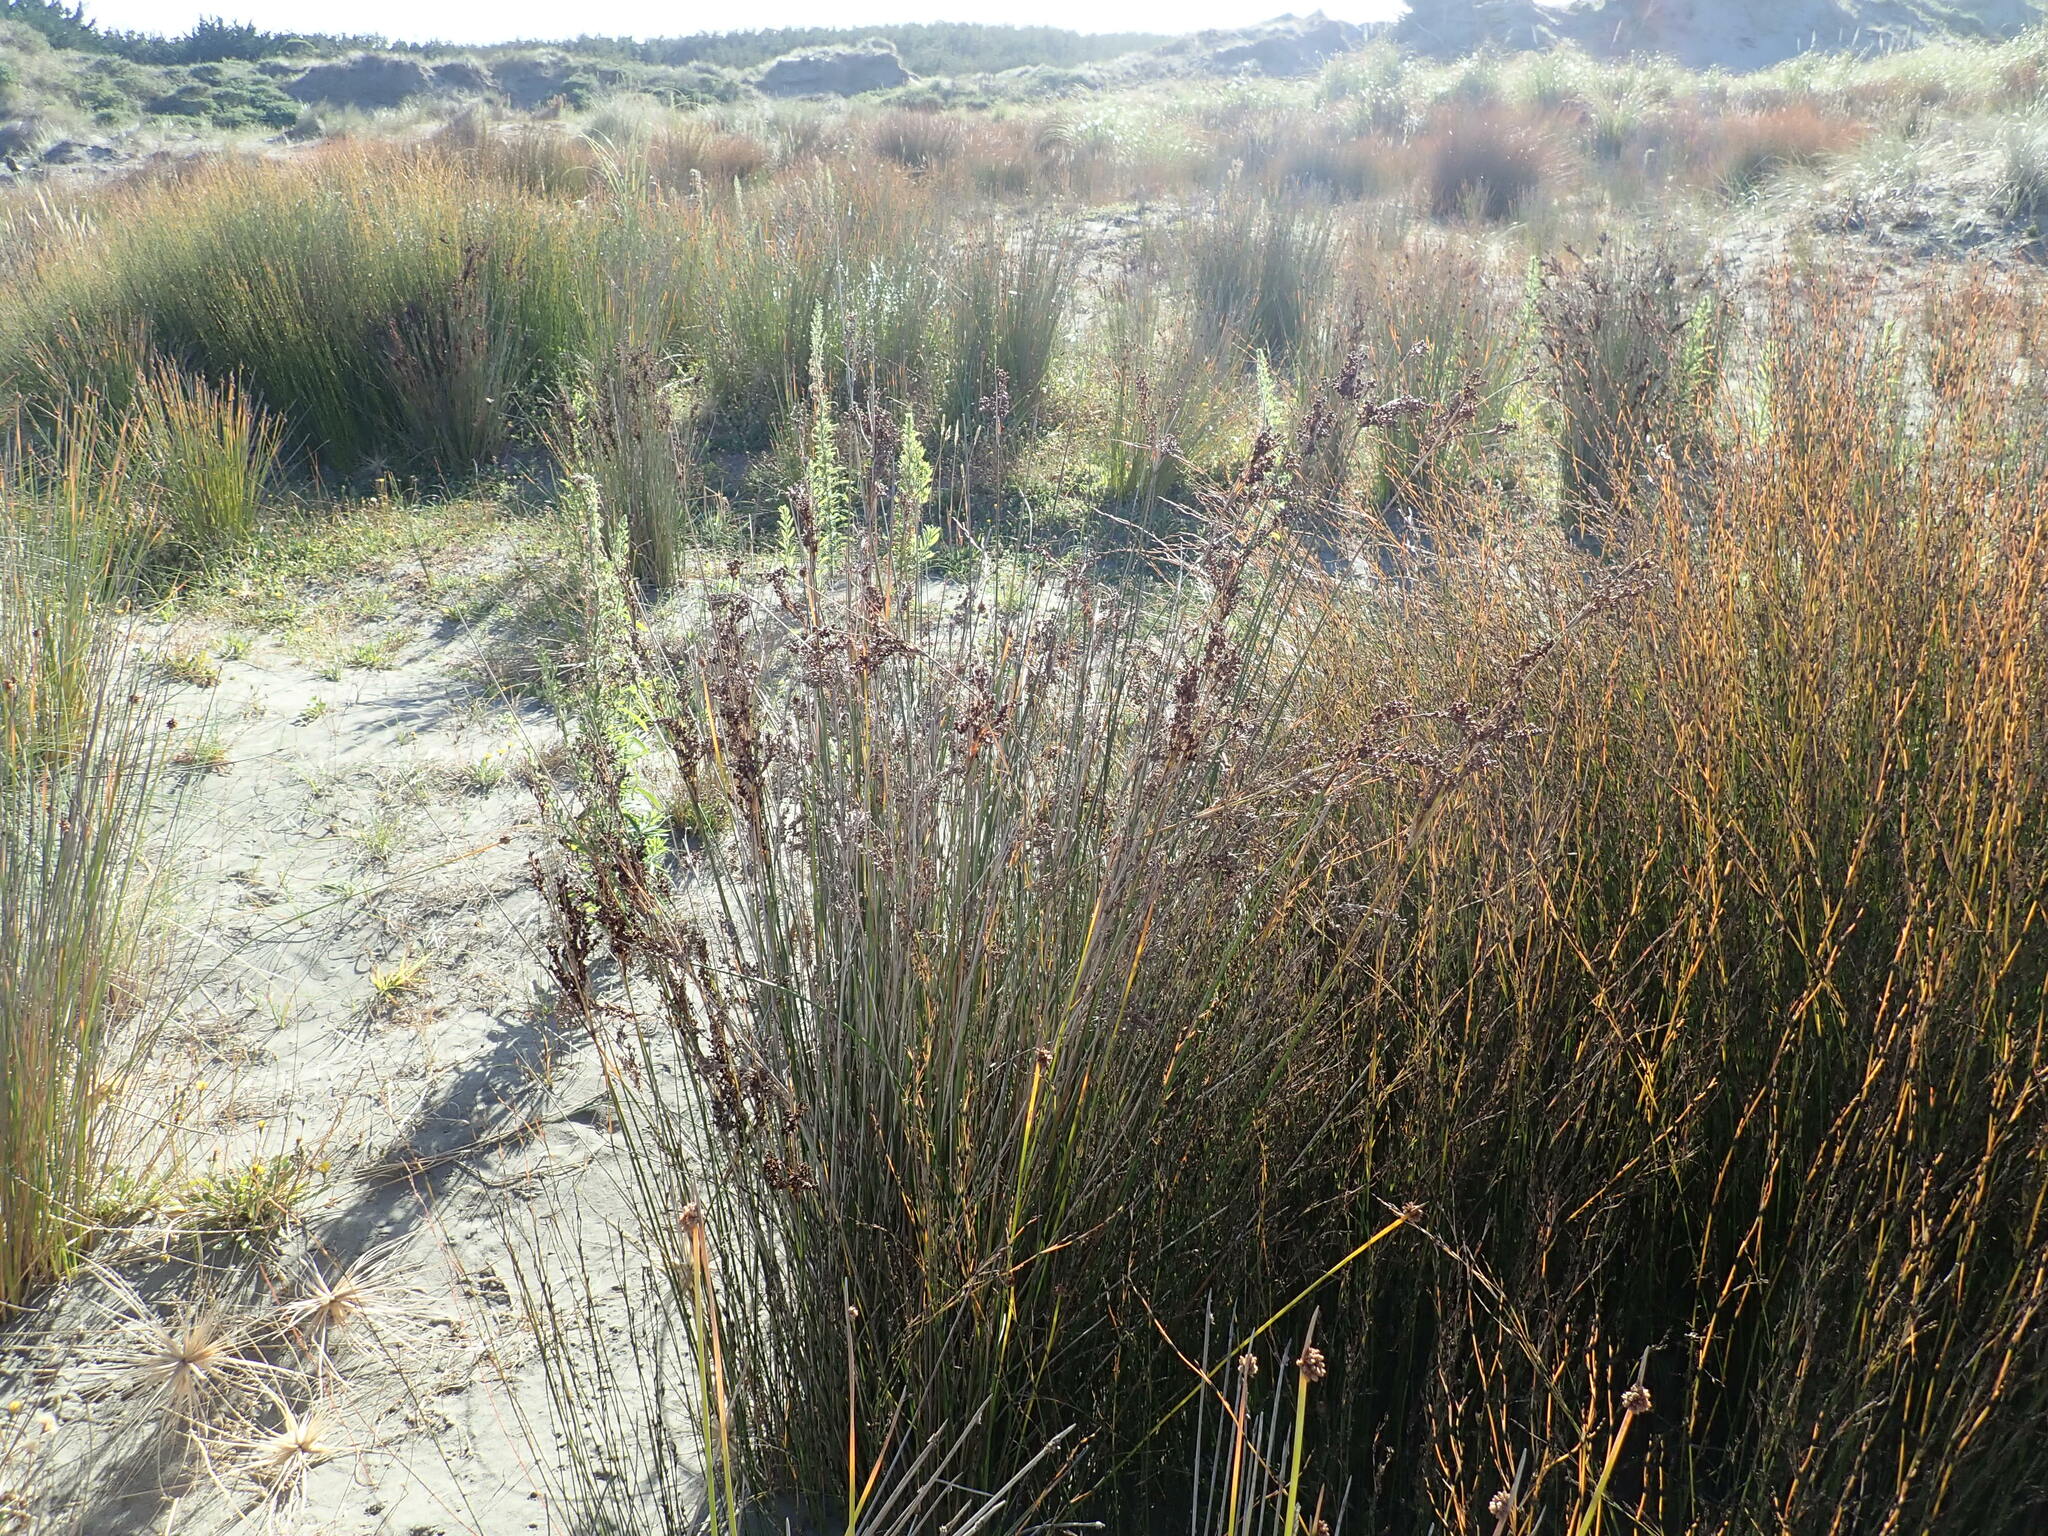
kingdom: Plantae
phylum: Tracheophyta
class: Liliopsida
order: Poales
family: Juncaceae
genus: Juncus
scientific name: Juncus kraussii
